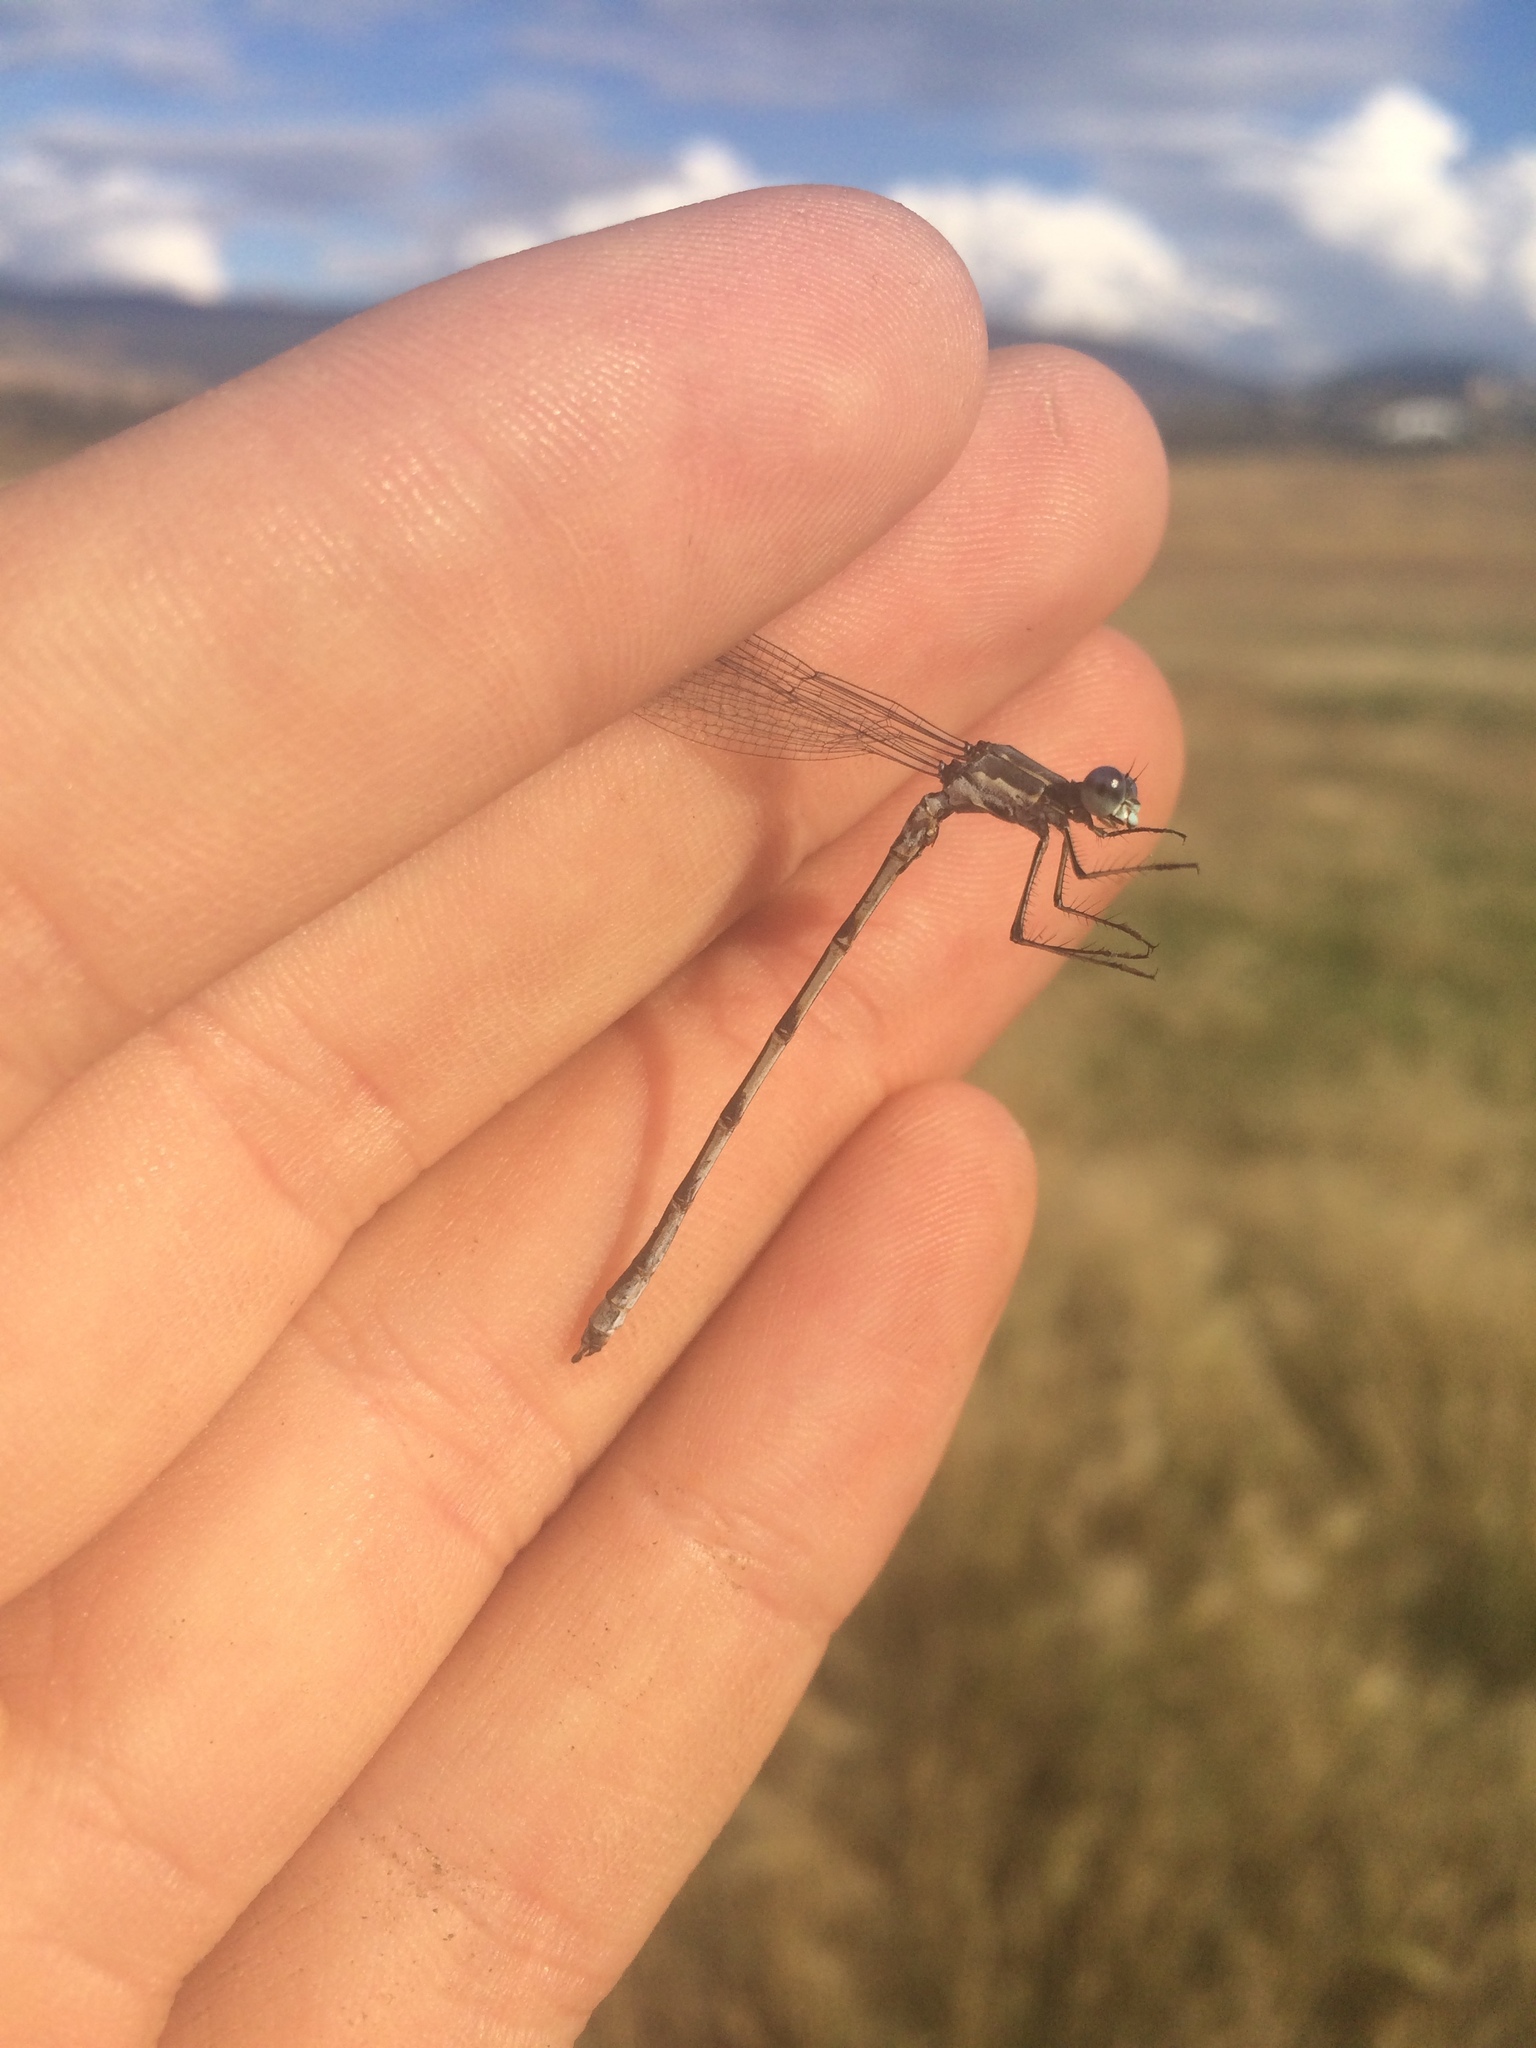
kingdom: Animalia
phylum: Arthropoda
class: Insecta
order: Odonata
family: Lestidae
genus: Lestes
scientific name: Lestes congener
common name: Spotted spreadwing
